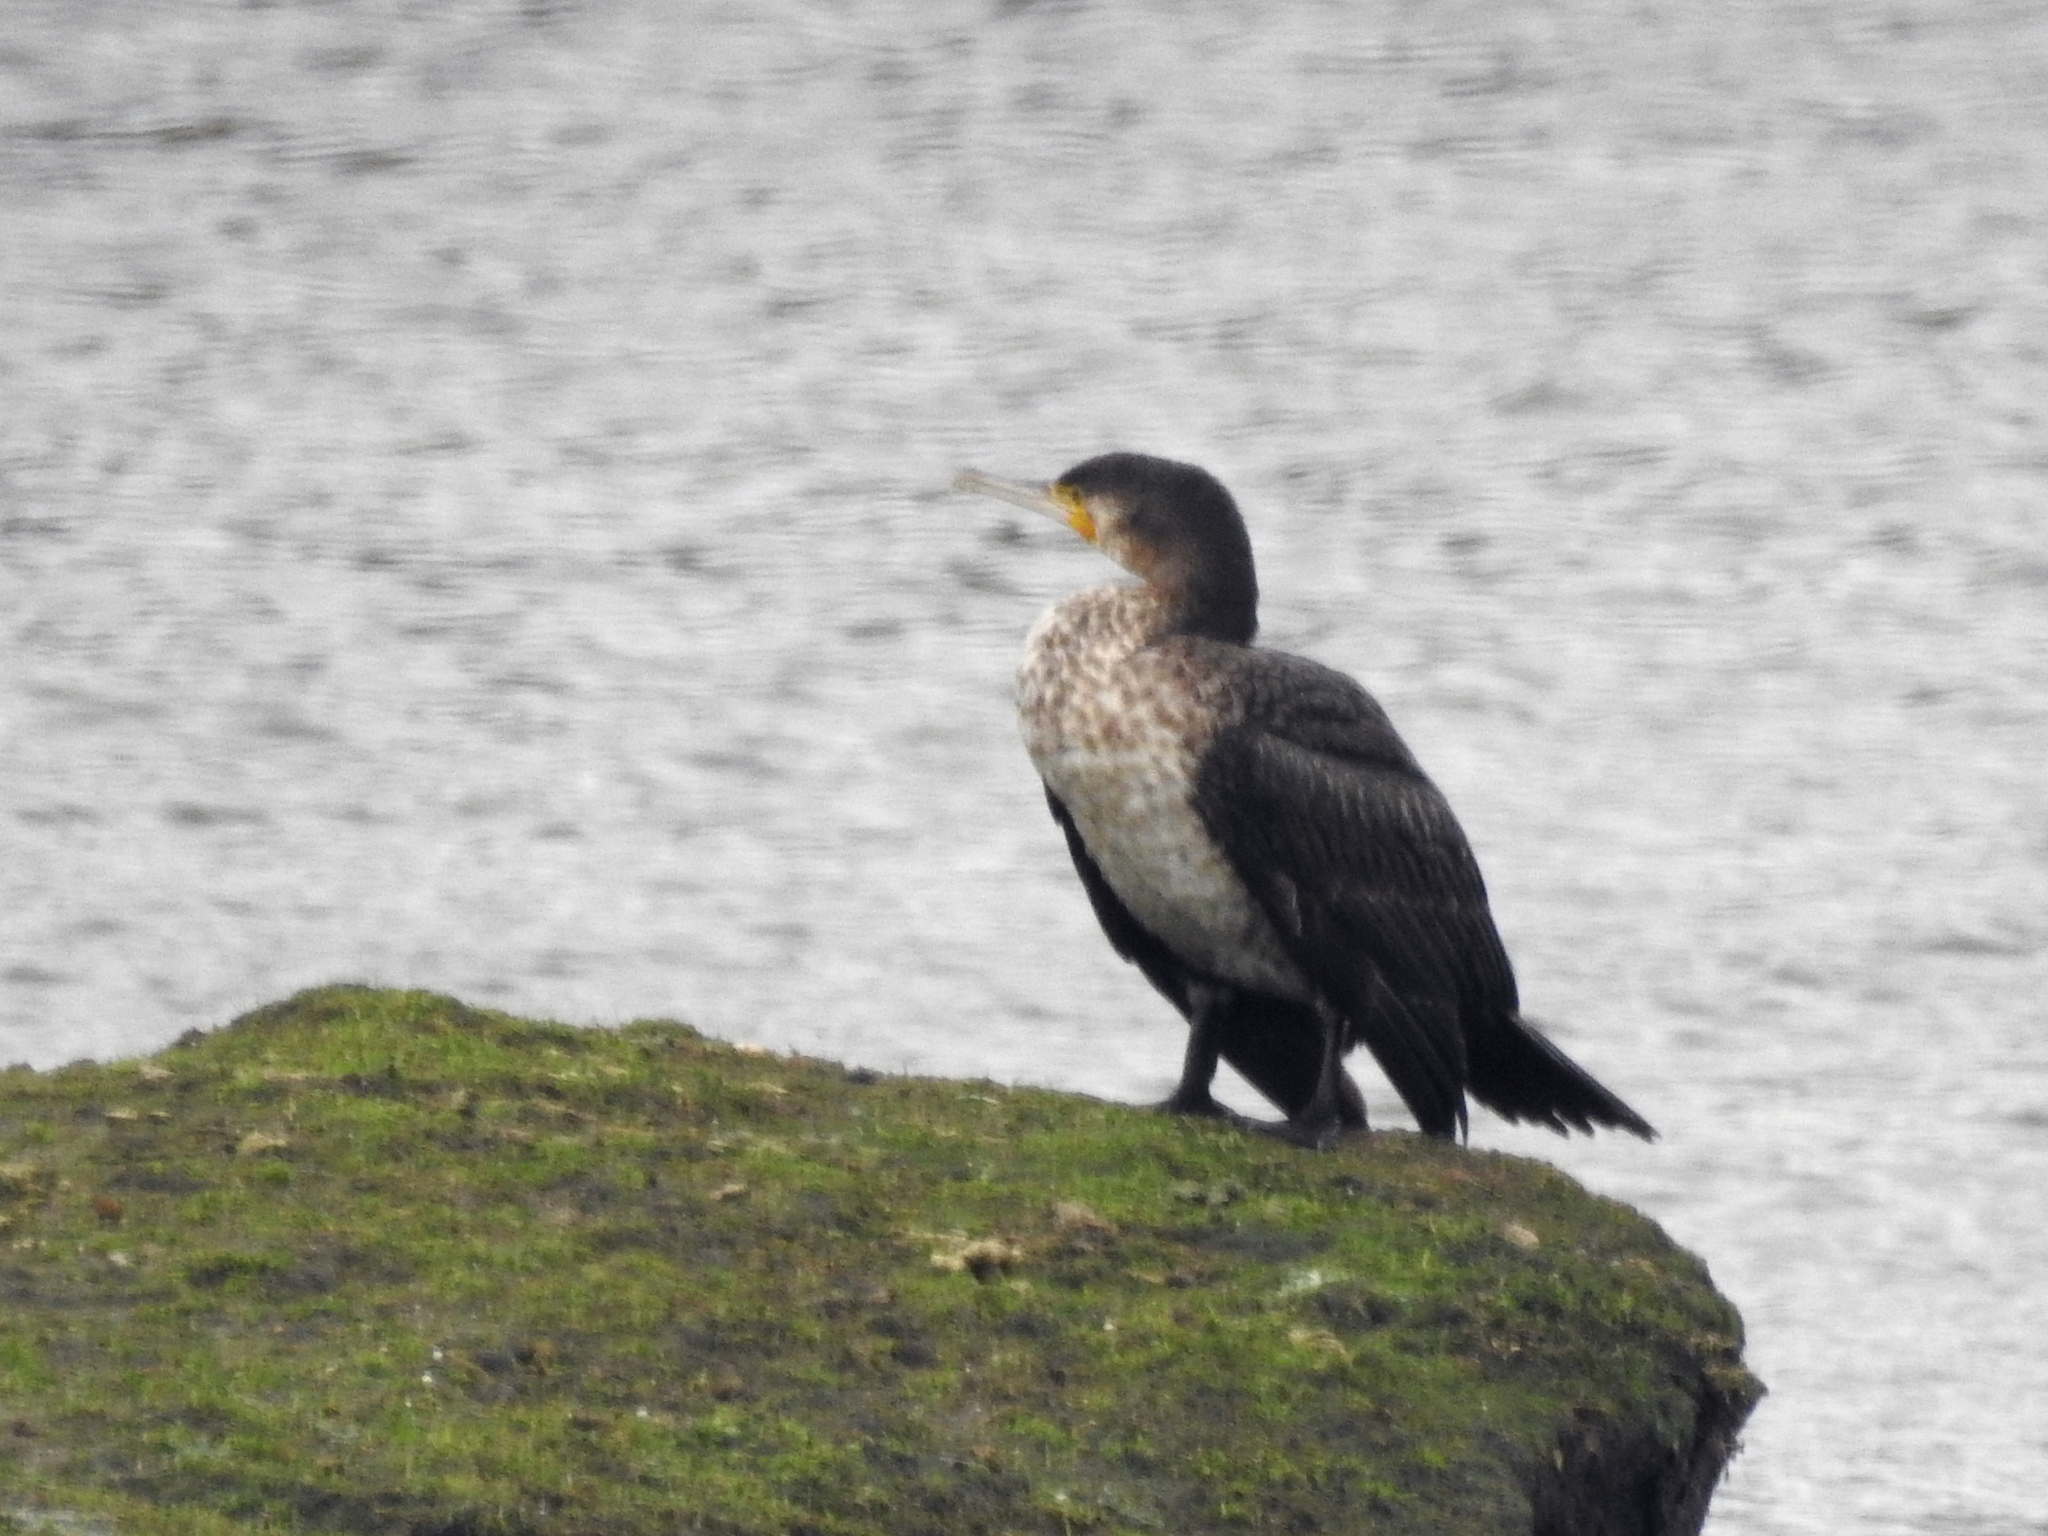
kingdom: Animalia
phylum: Chordata
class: Aves
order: Suliformes
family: Phalacrocoracidae
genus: Phalacrocorax
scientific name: Phalacrocorax carbo
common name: Great cormorant
